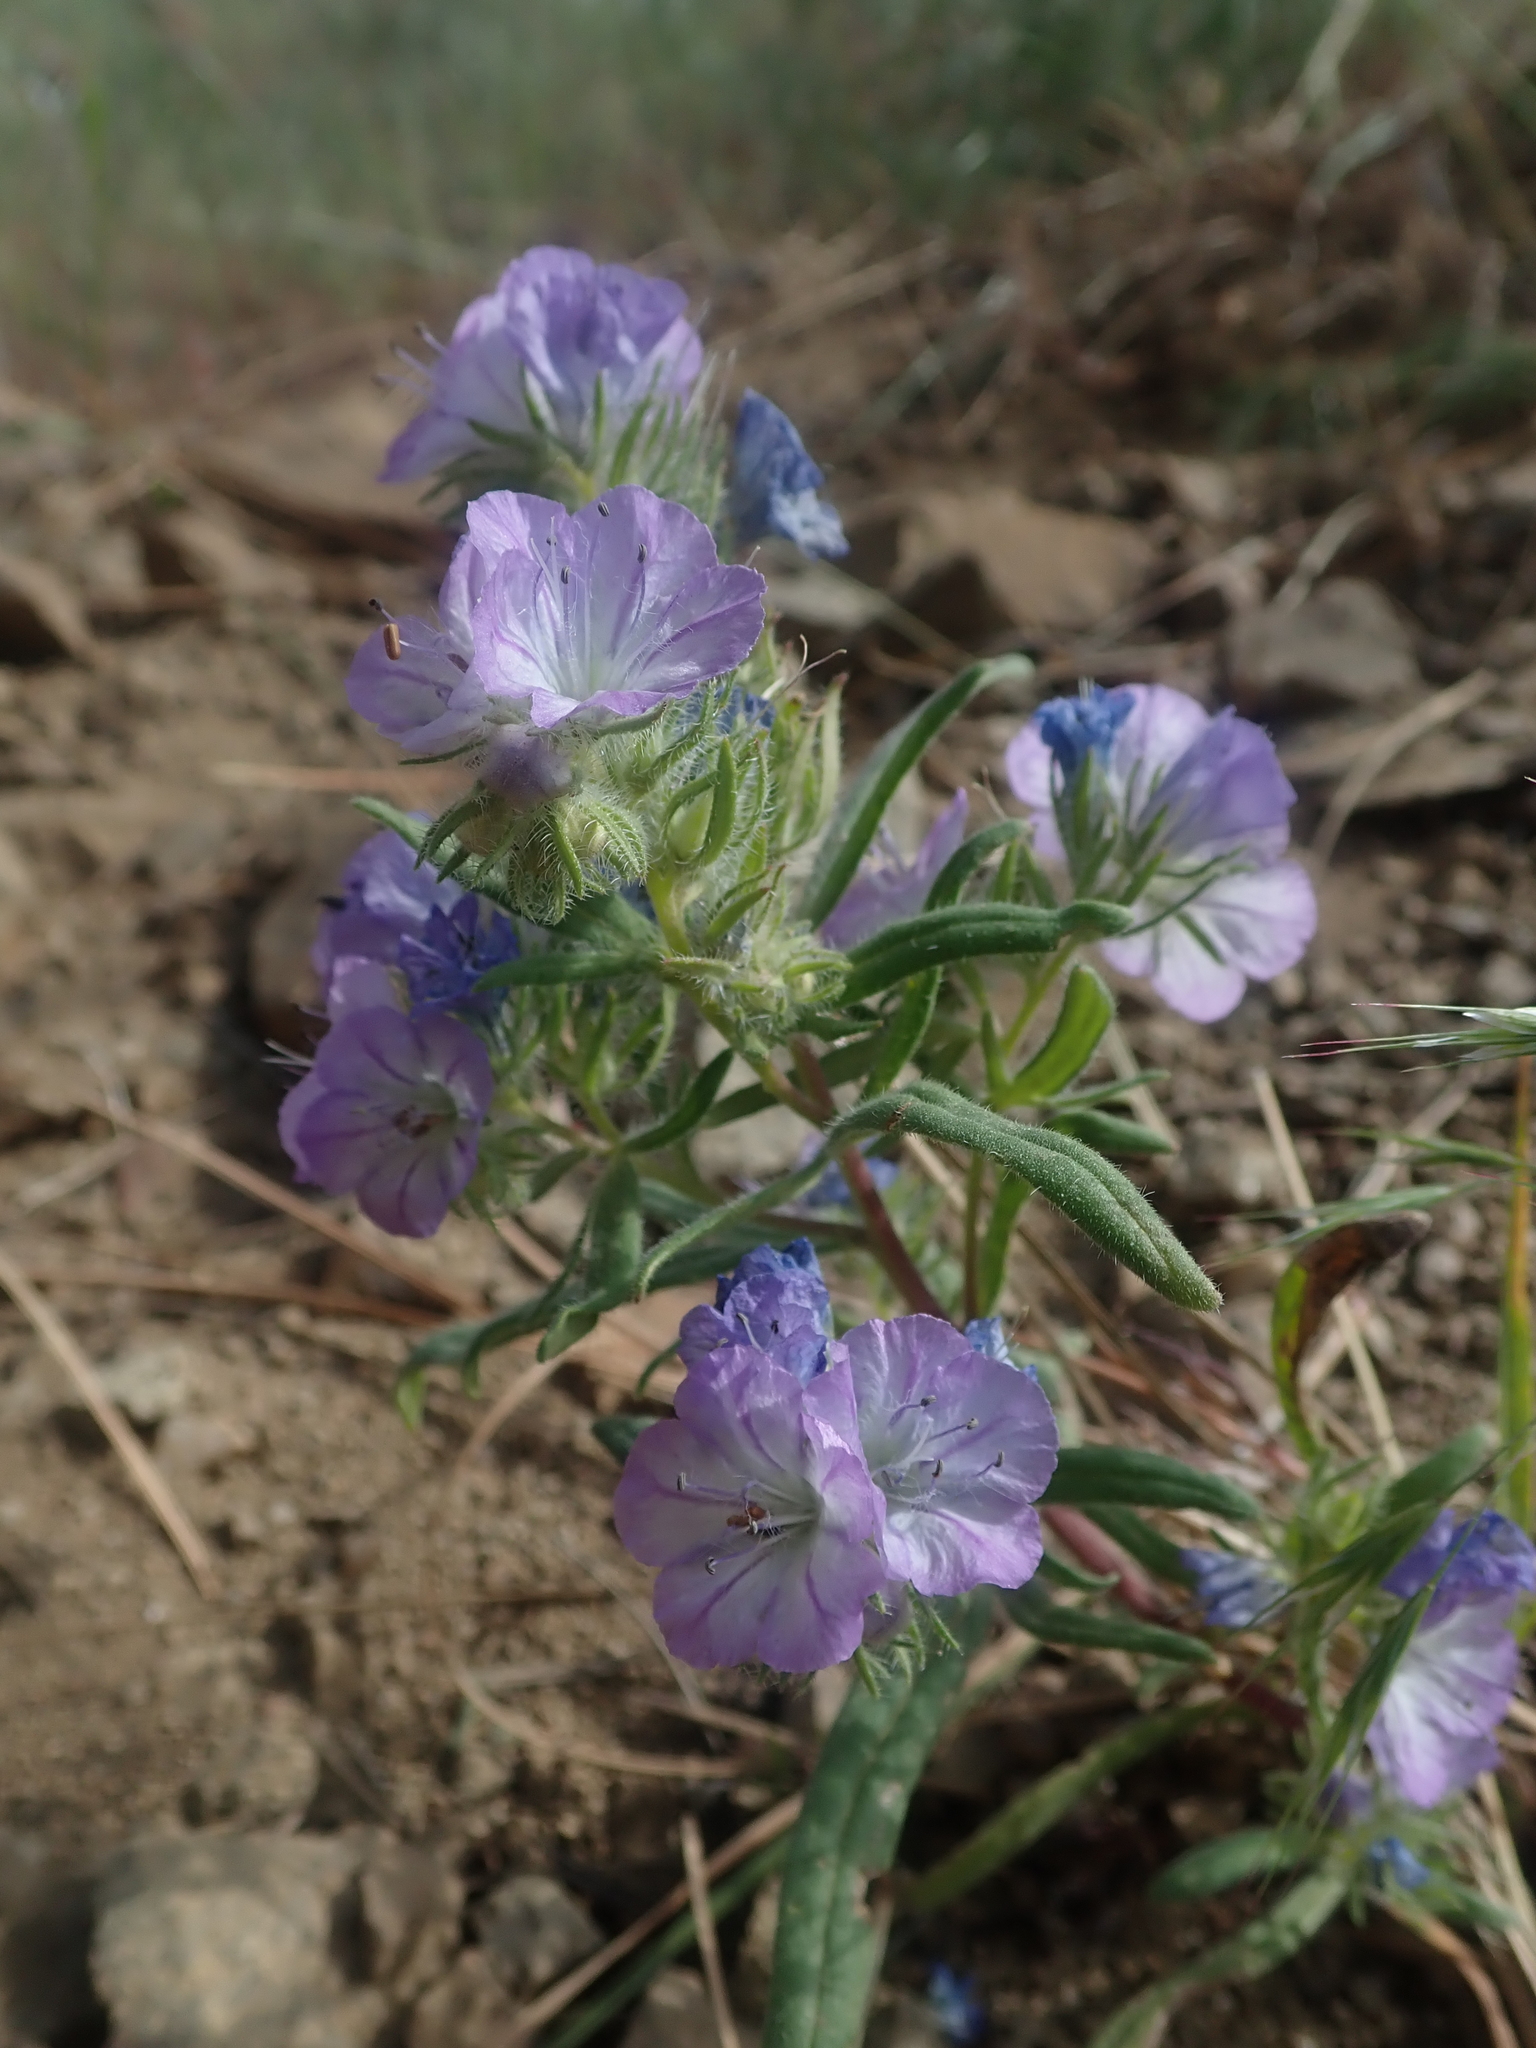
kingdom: Plantae
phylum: Tracheophyta
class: Magnoliopsida
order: Boraginales
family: Hydrophyllaceae
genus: Phacelia
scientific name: Phacelia linearis
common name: Linear-leaved phacelia
